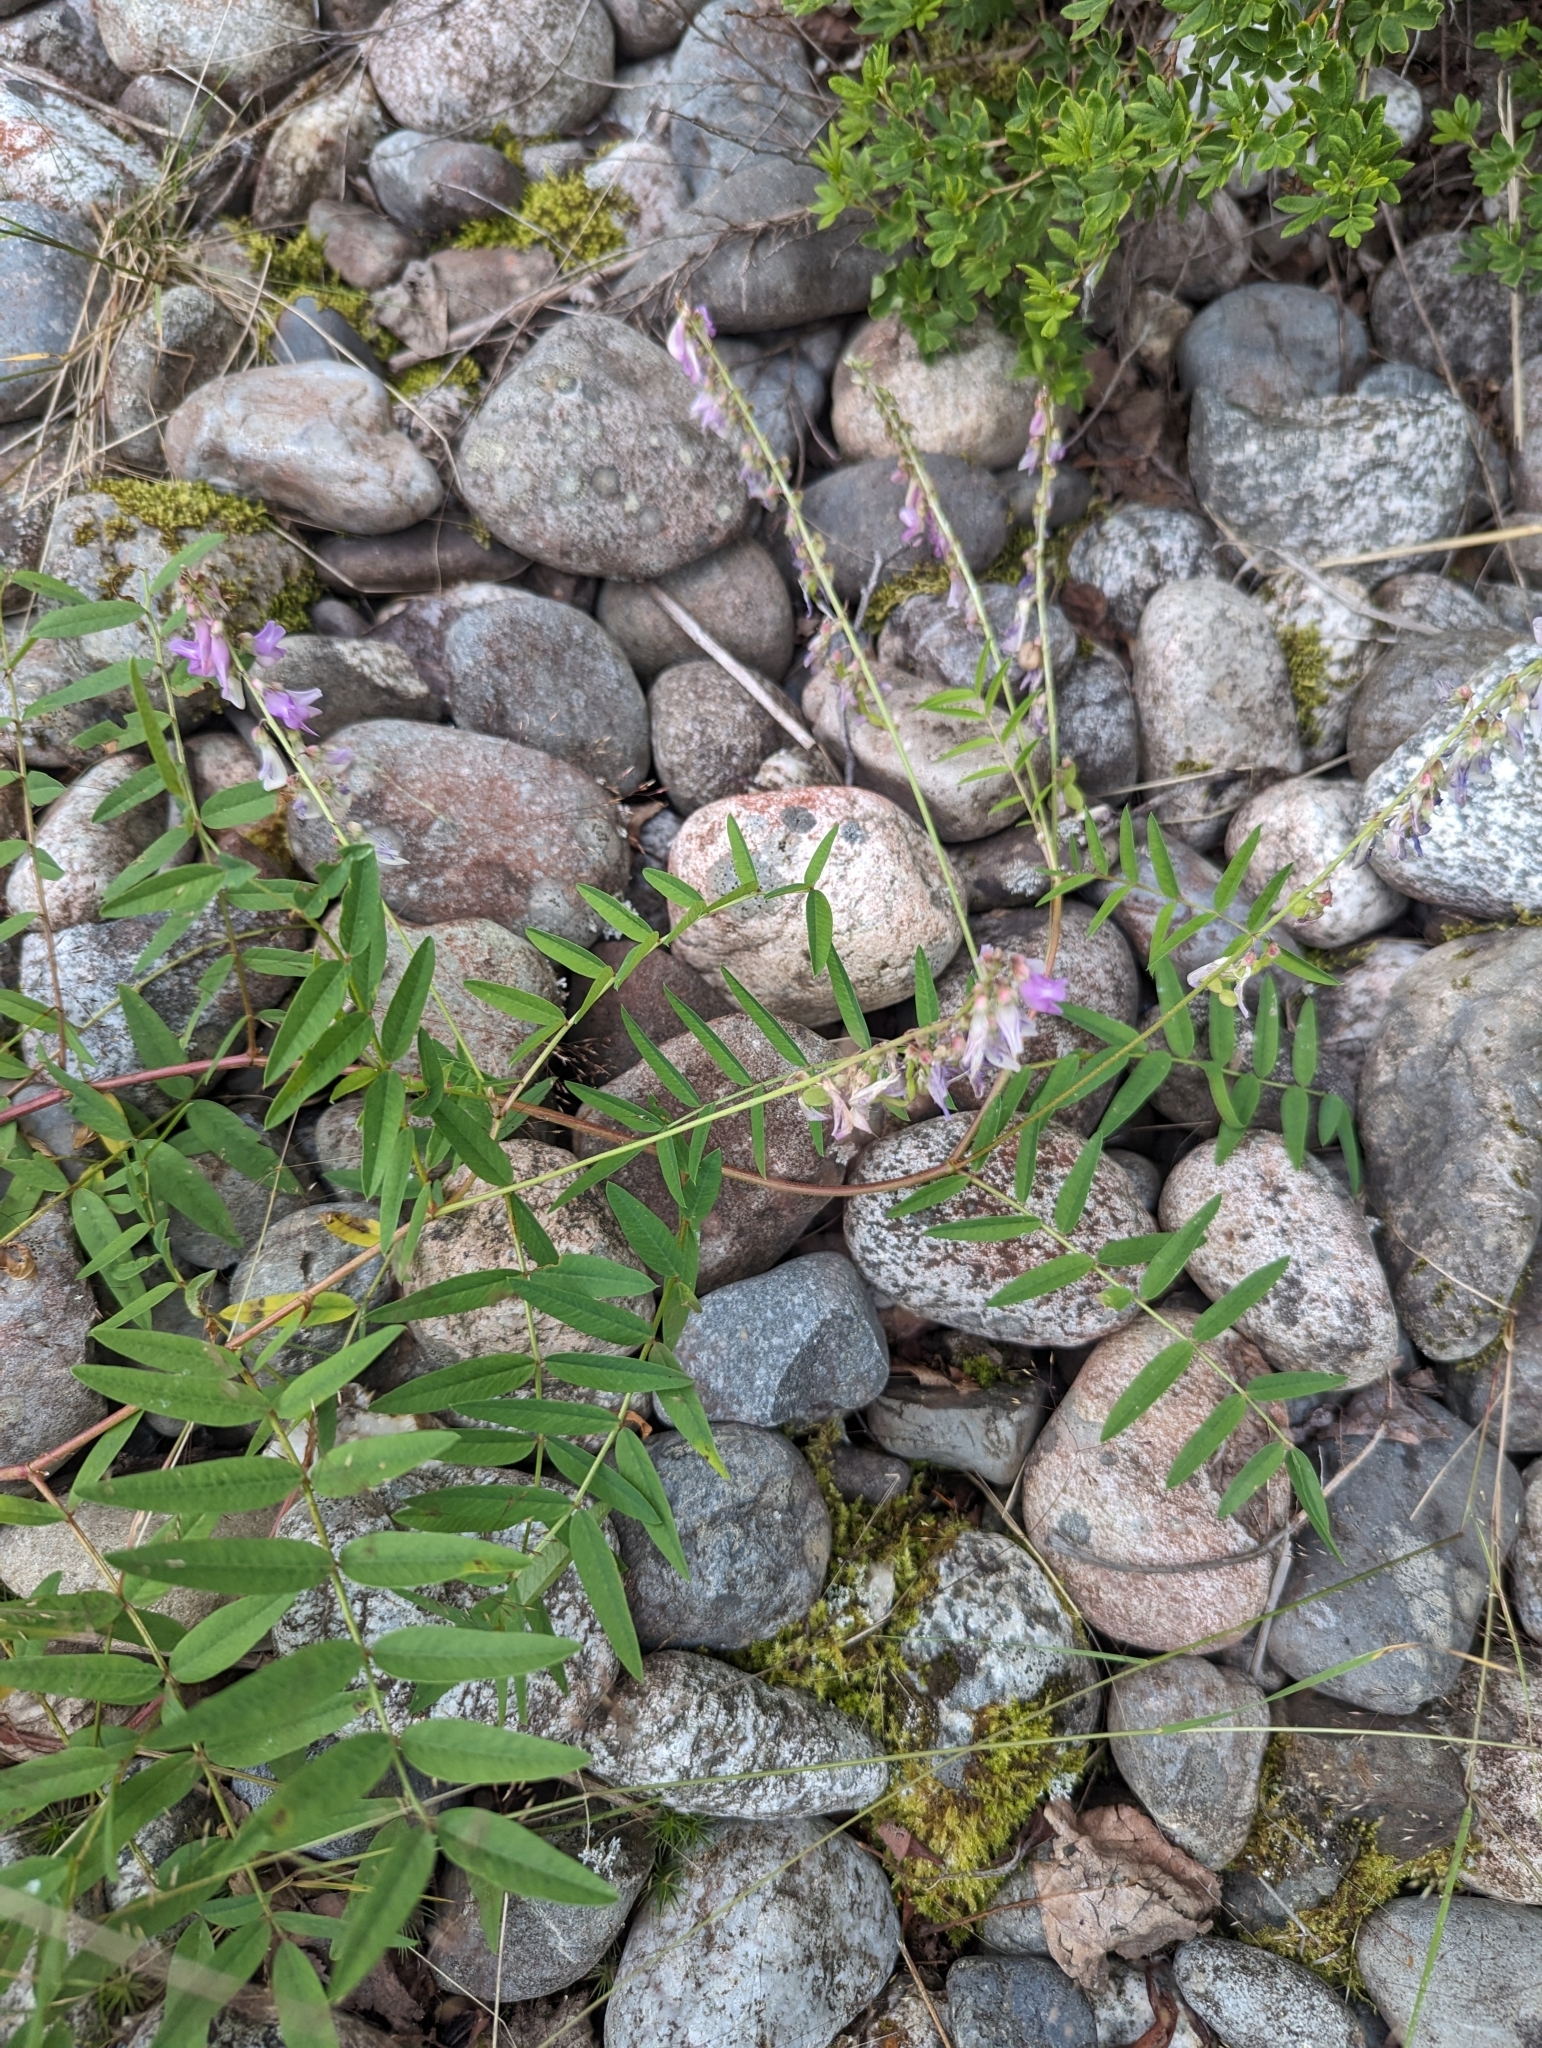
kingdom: Plantae
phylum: Tracheophyta
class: Magnoliopsida
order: Fabales
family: Fabaceae
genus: Hedysarum
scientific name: Hedysarum alpinum
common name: Alpine sweet-vetch
